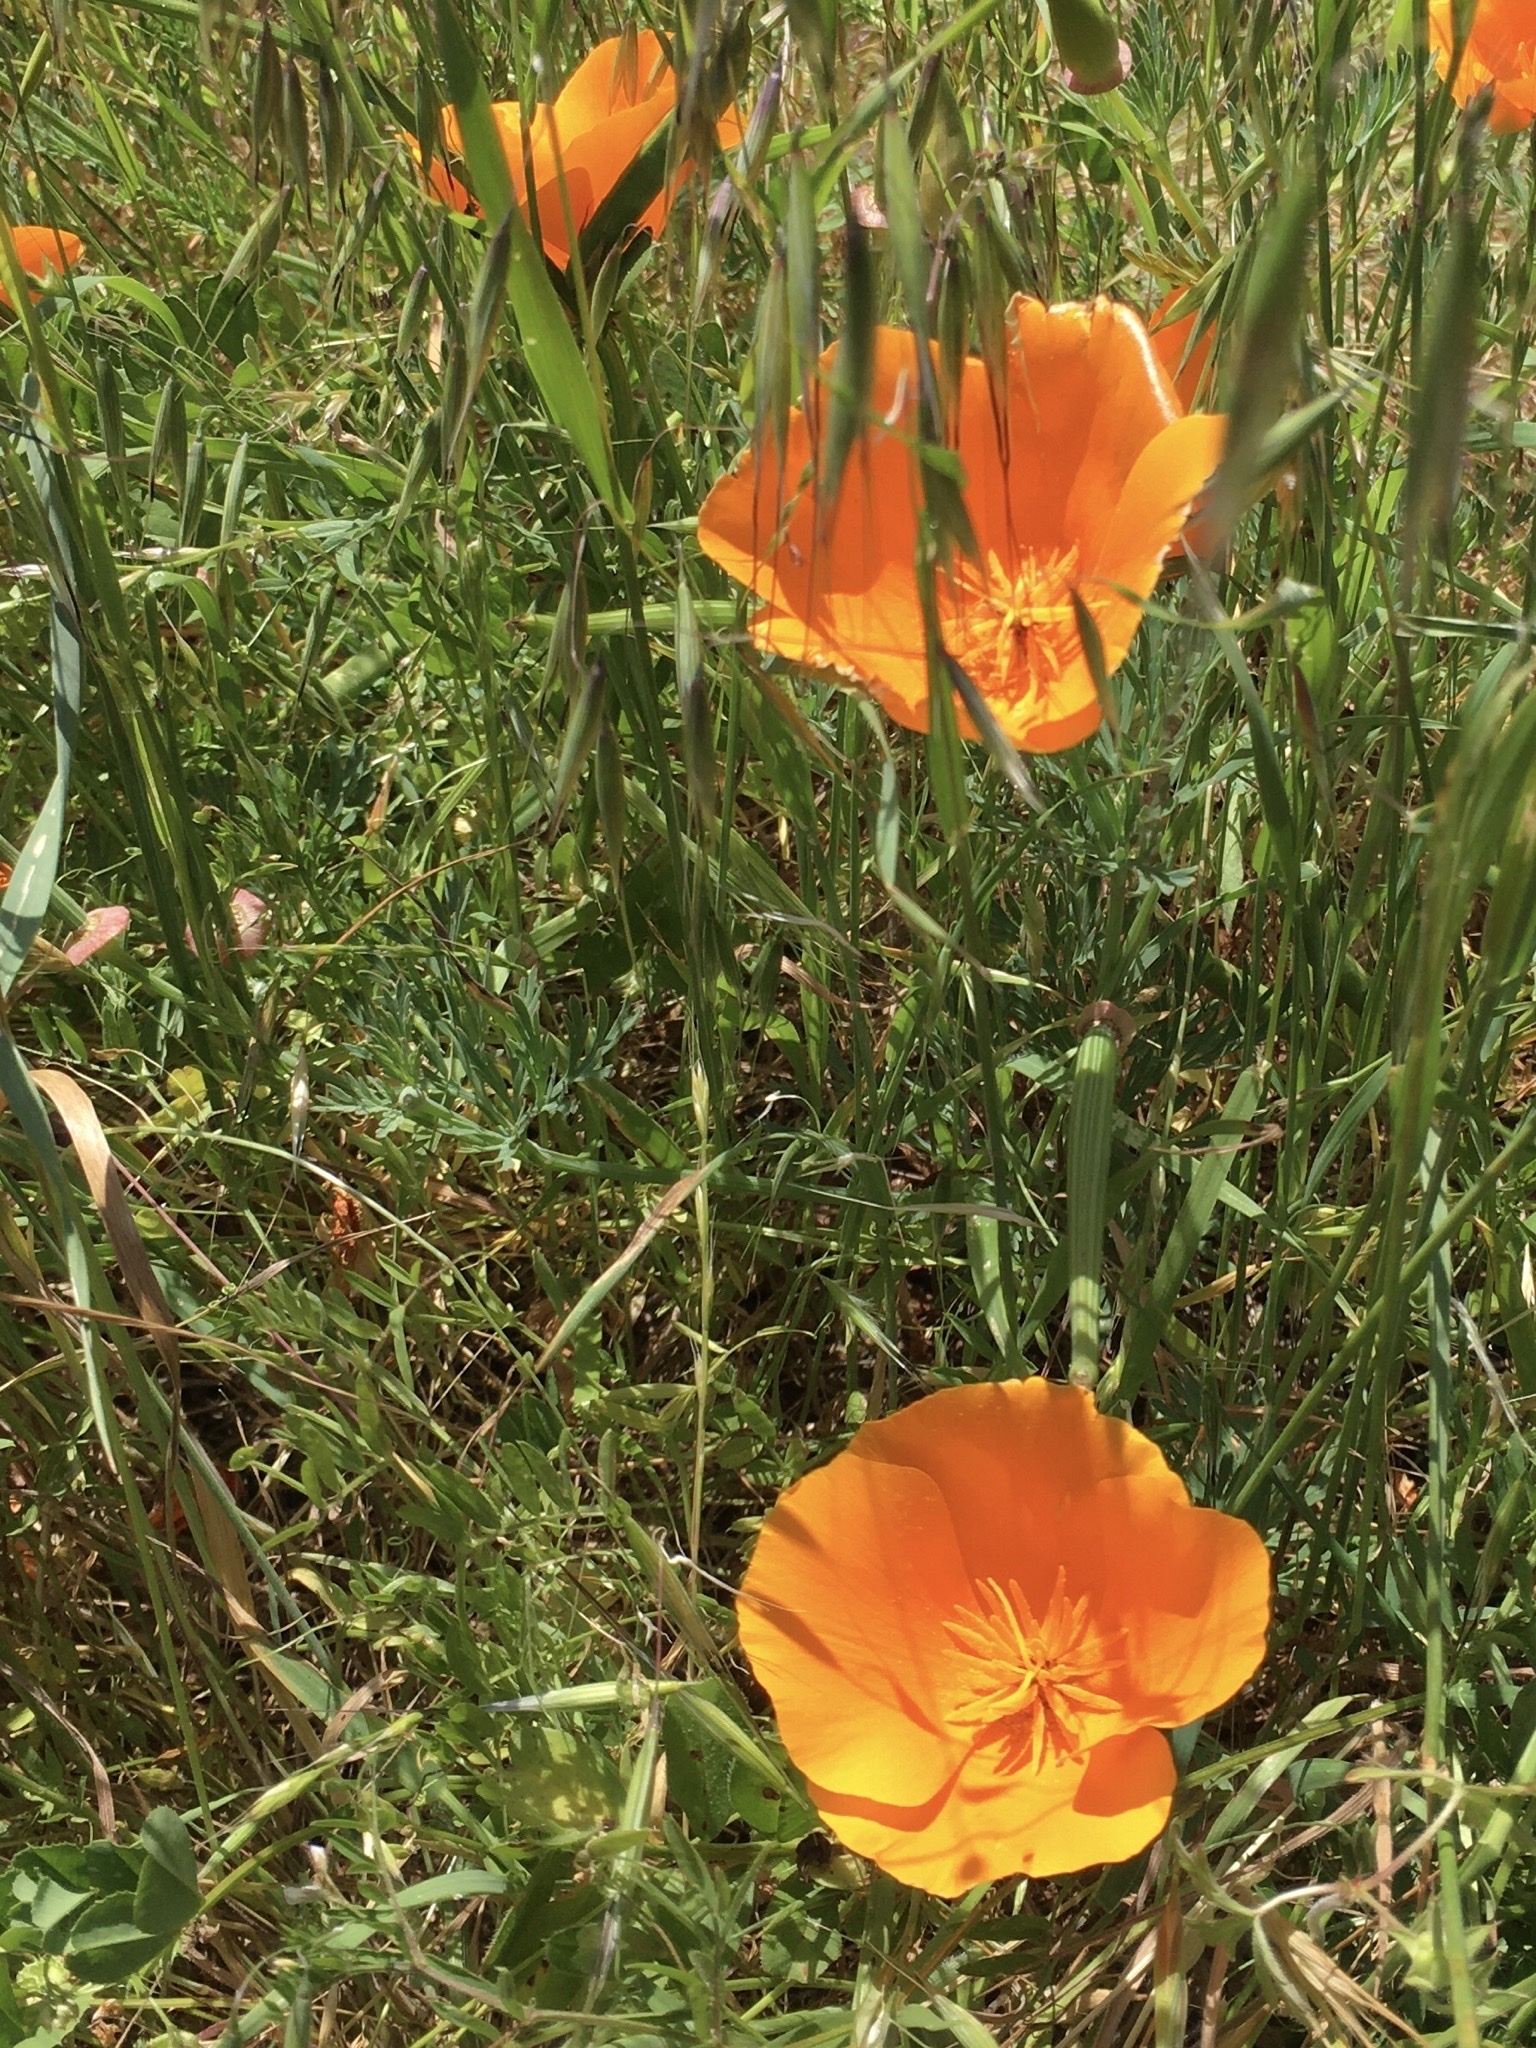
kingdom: Plantae
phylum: Tracheophyta
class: Magnoliopsida
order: Ranunculales
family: Papaveraceae
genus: Eschscholzia
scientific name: Eschscholzia californica
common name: California poppy
